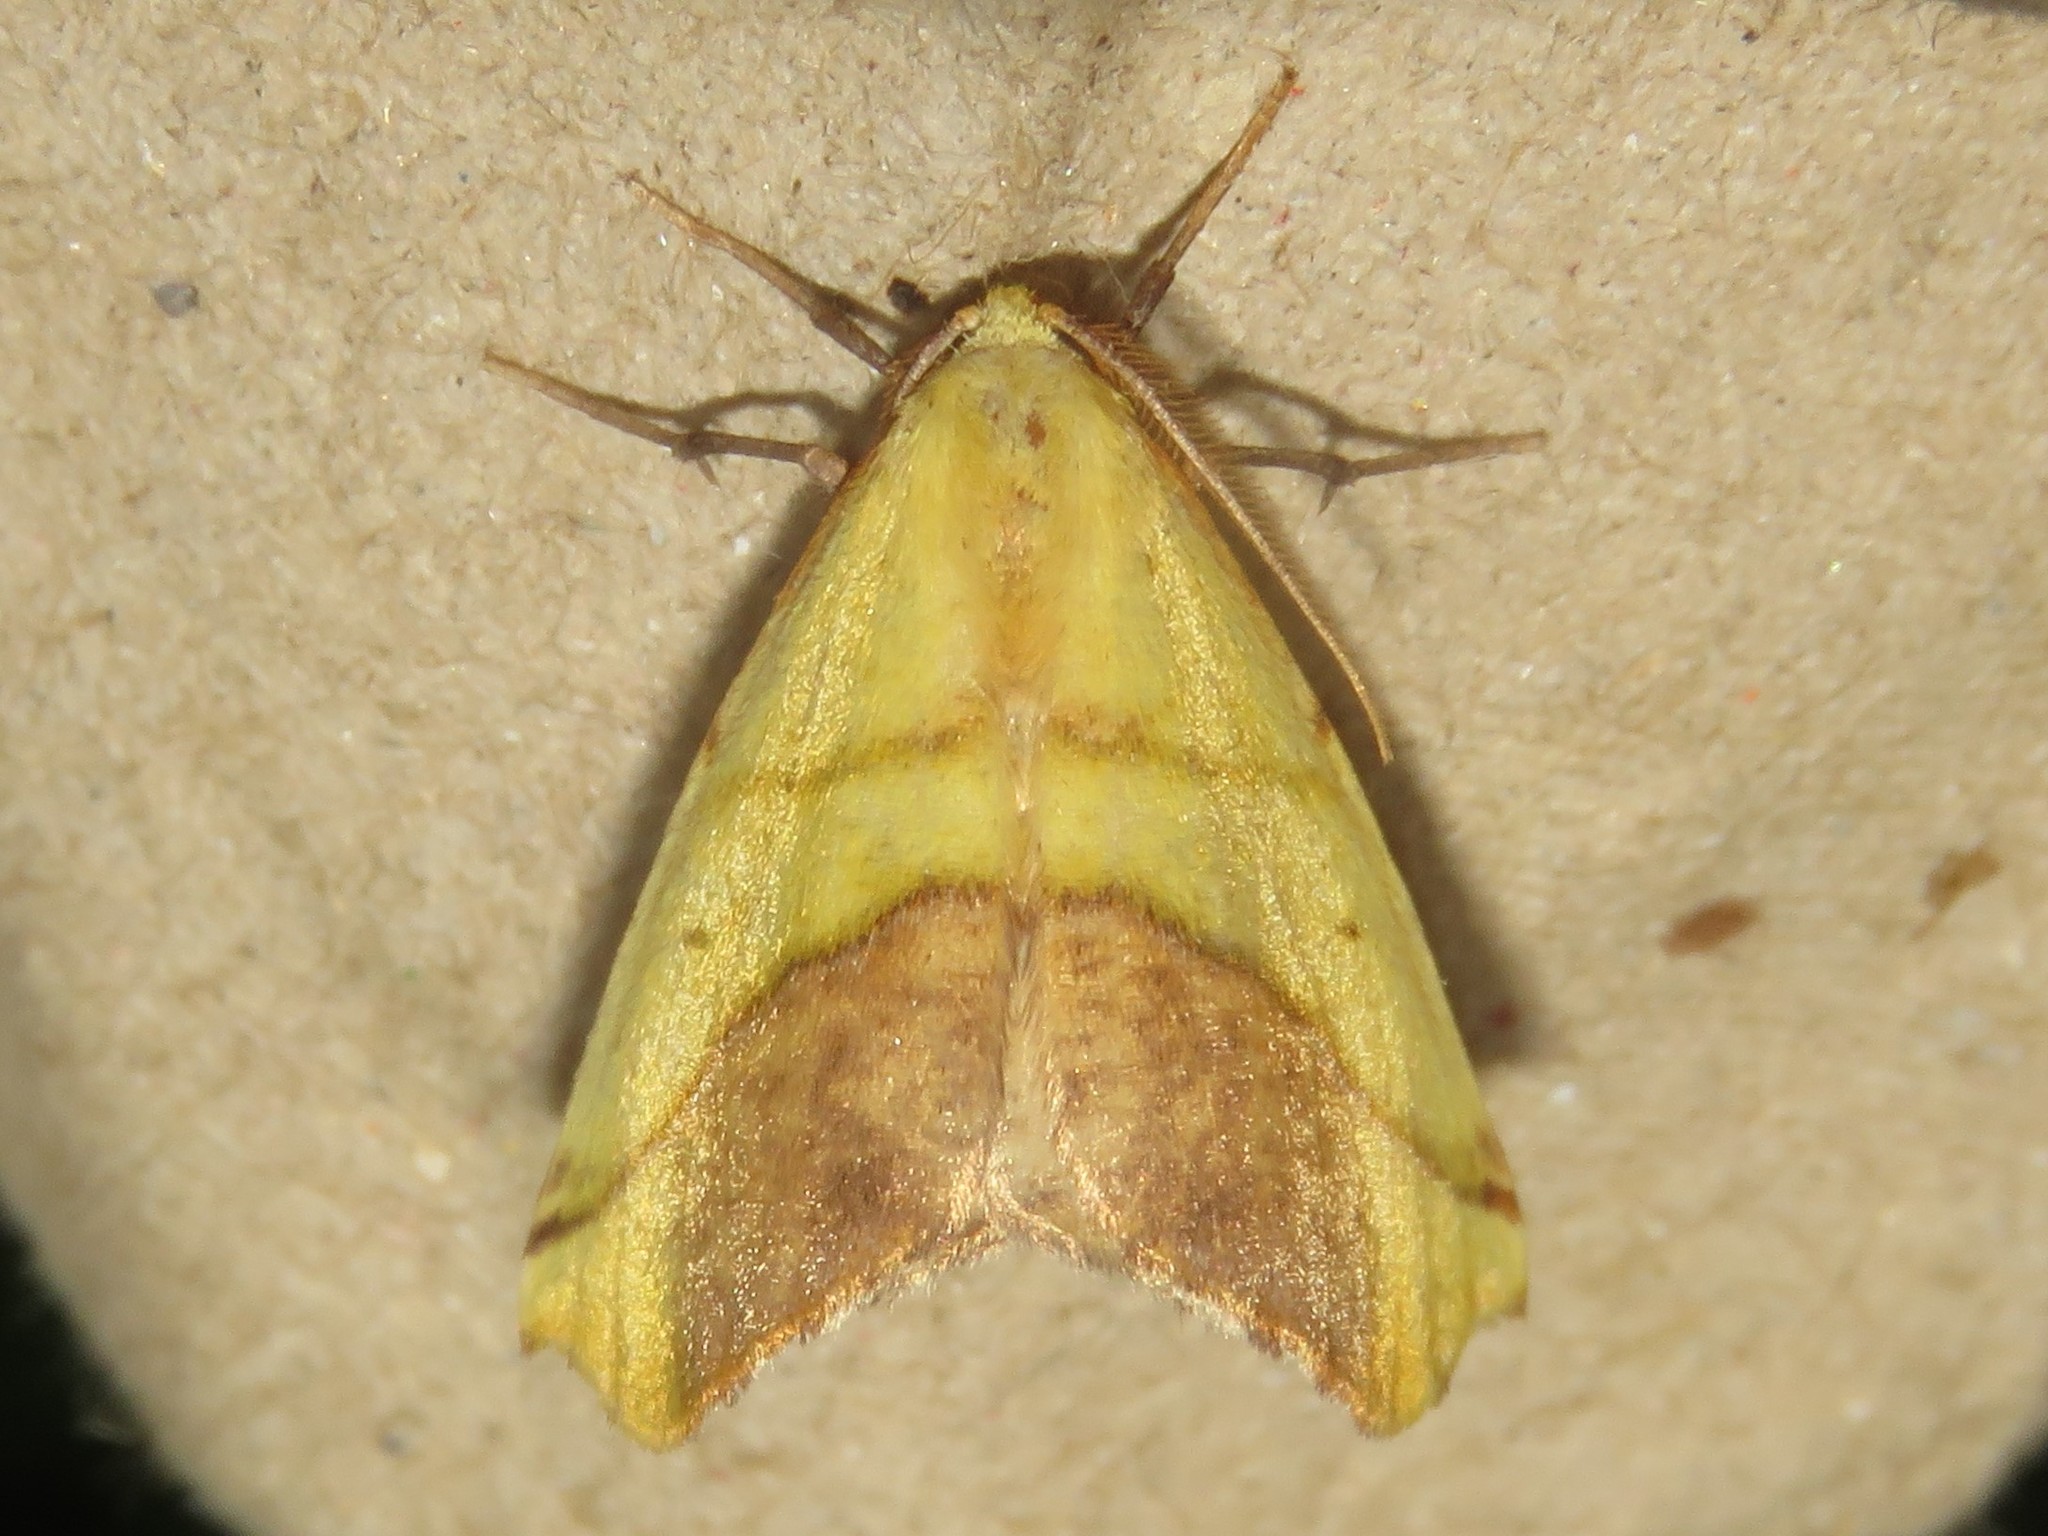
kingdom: Animalia
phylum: Arthropoda
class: Insecta
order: Lepidoptera
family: Geometridae
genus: Sicya
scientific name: Sicya macularia
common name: Sharp-lined yellow
